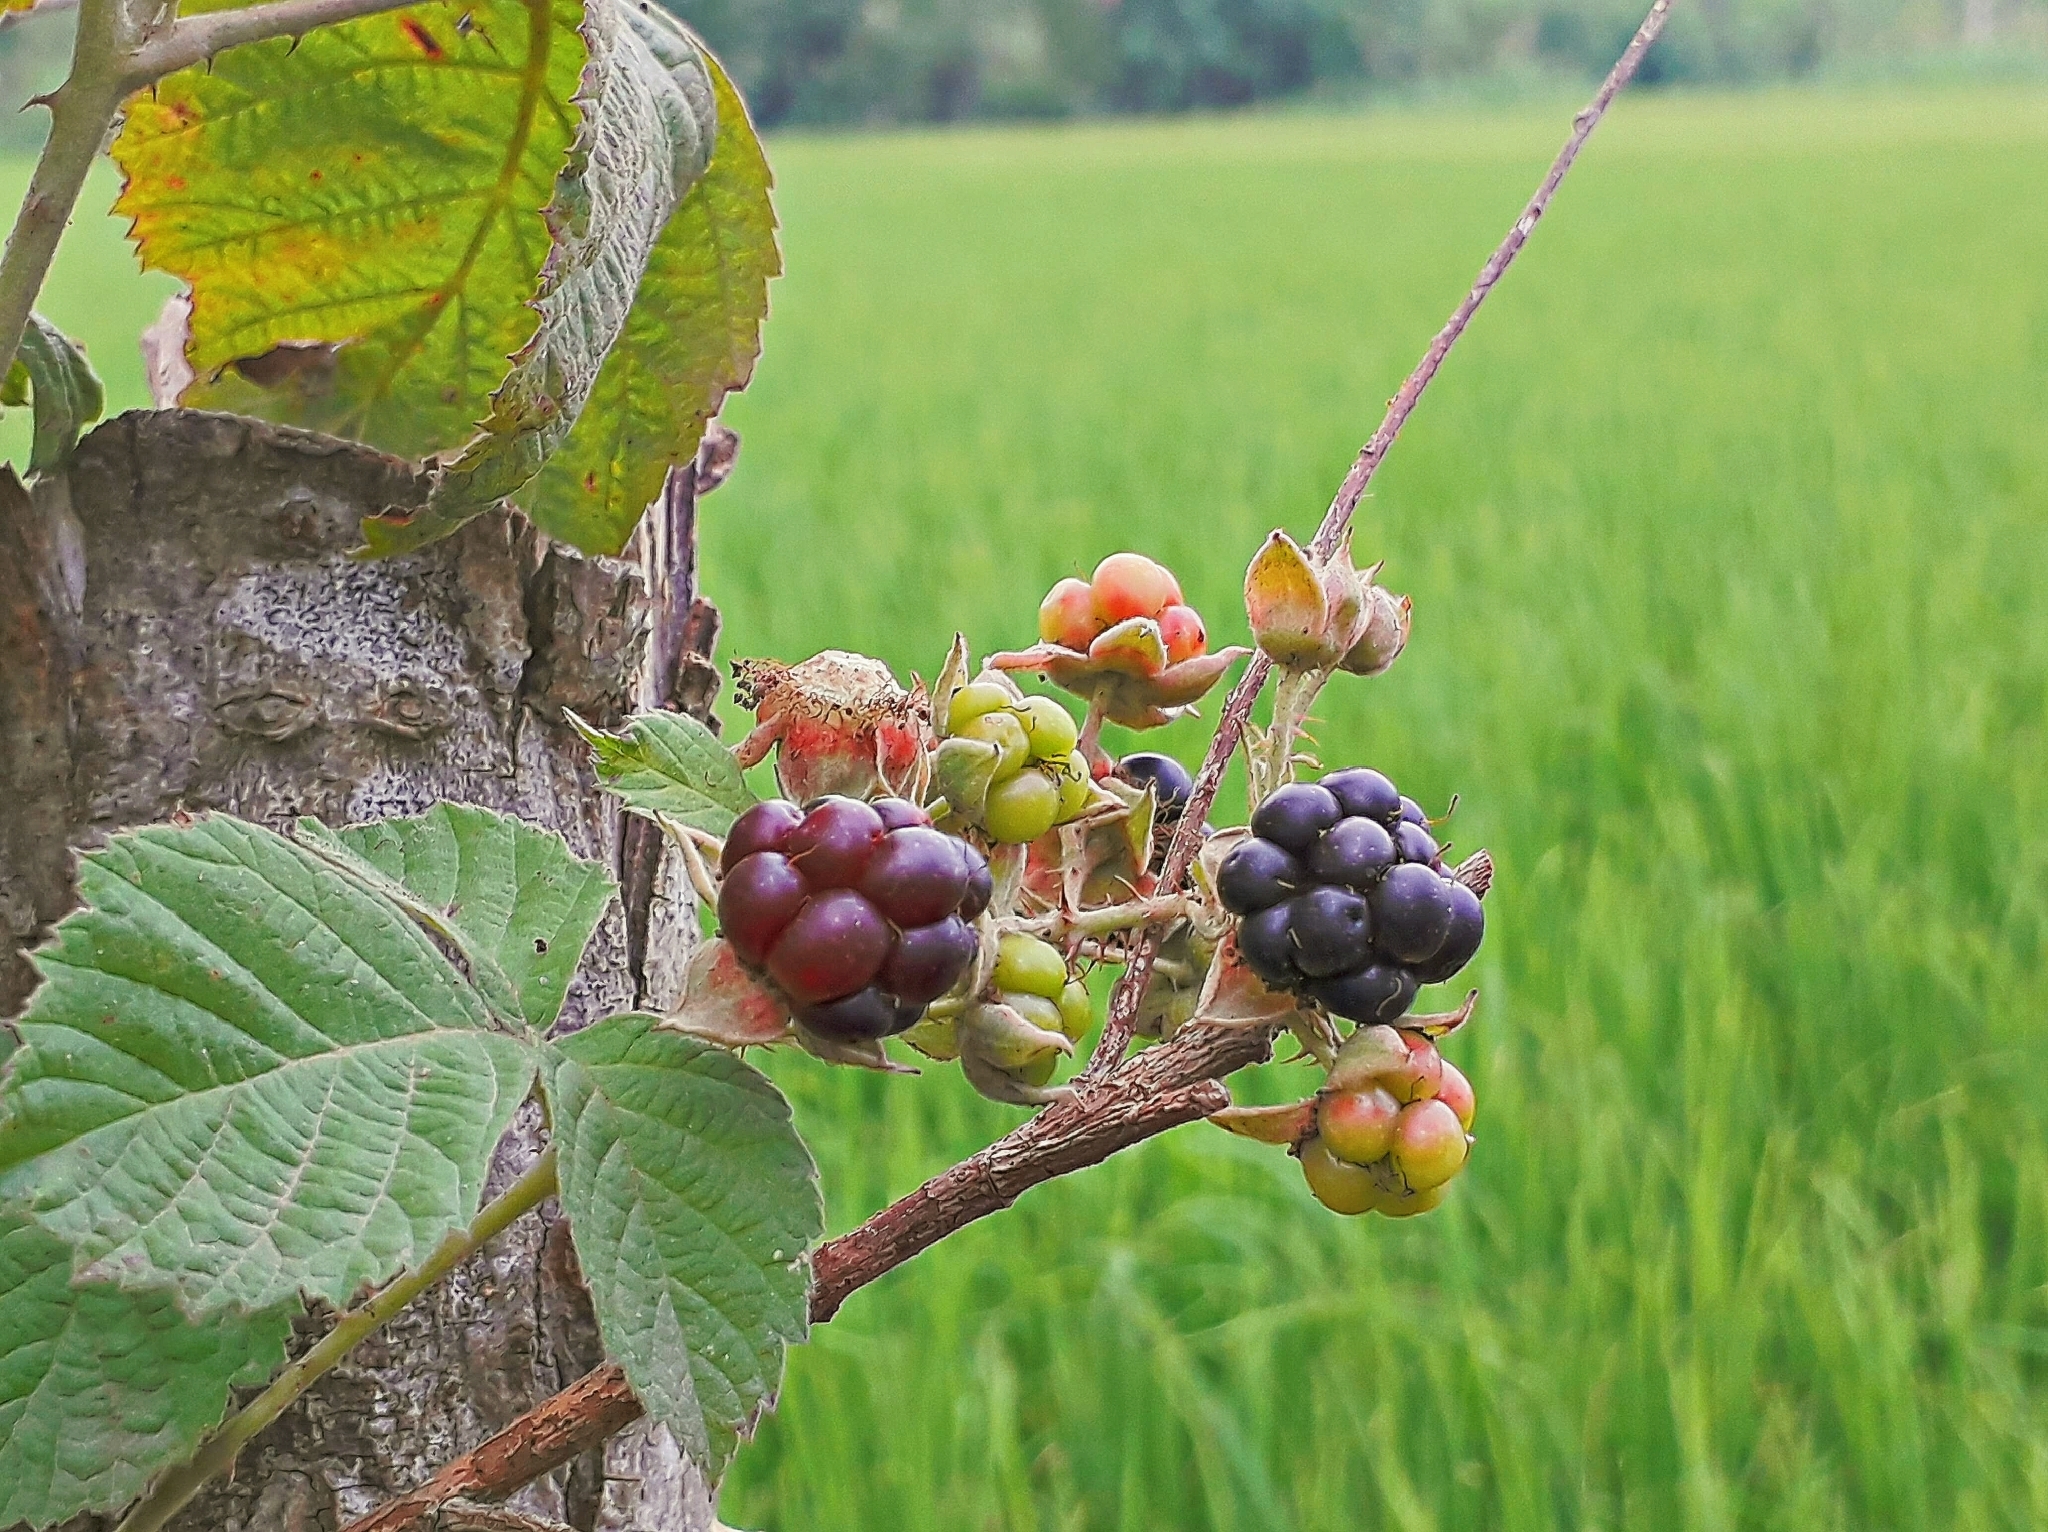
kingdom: Plantae
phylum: Tracheophyta
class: Magnoliopsida
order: Rosales
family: Rosaceae
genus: Rubus
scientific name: Rubus sanctus
